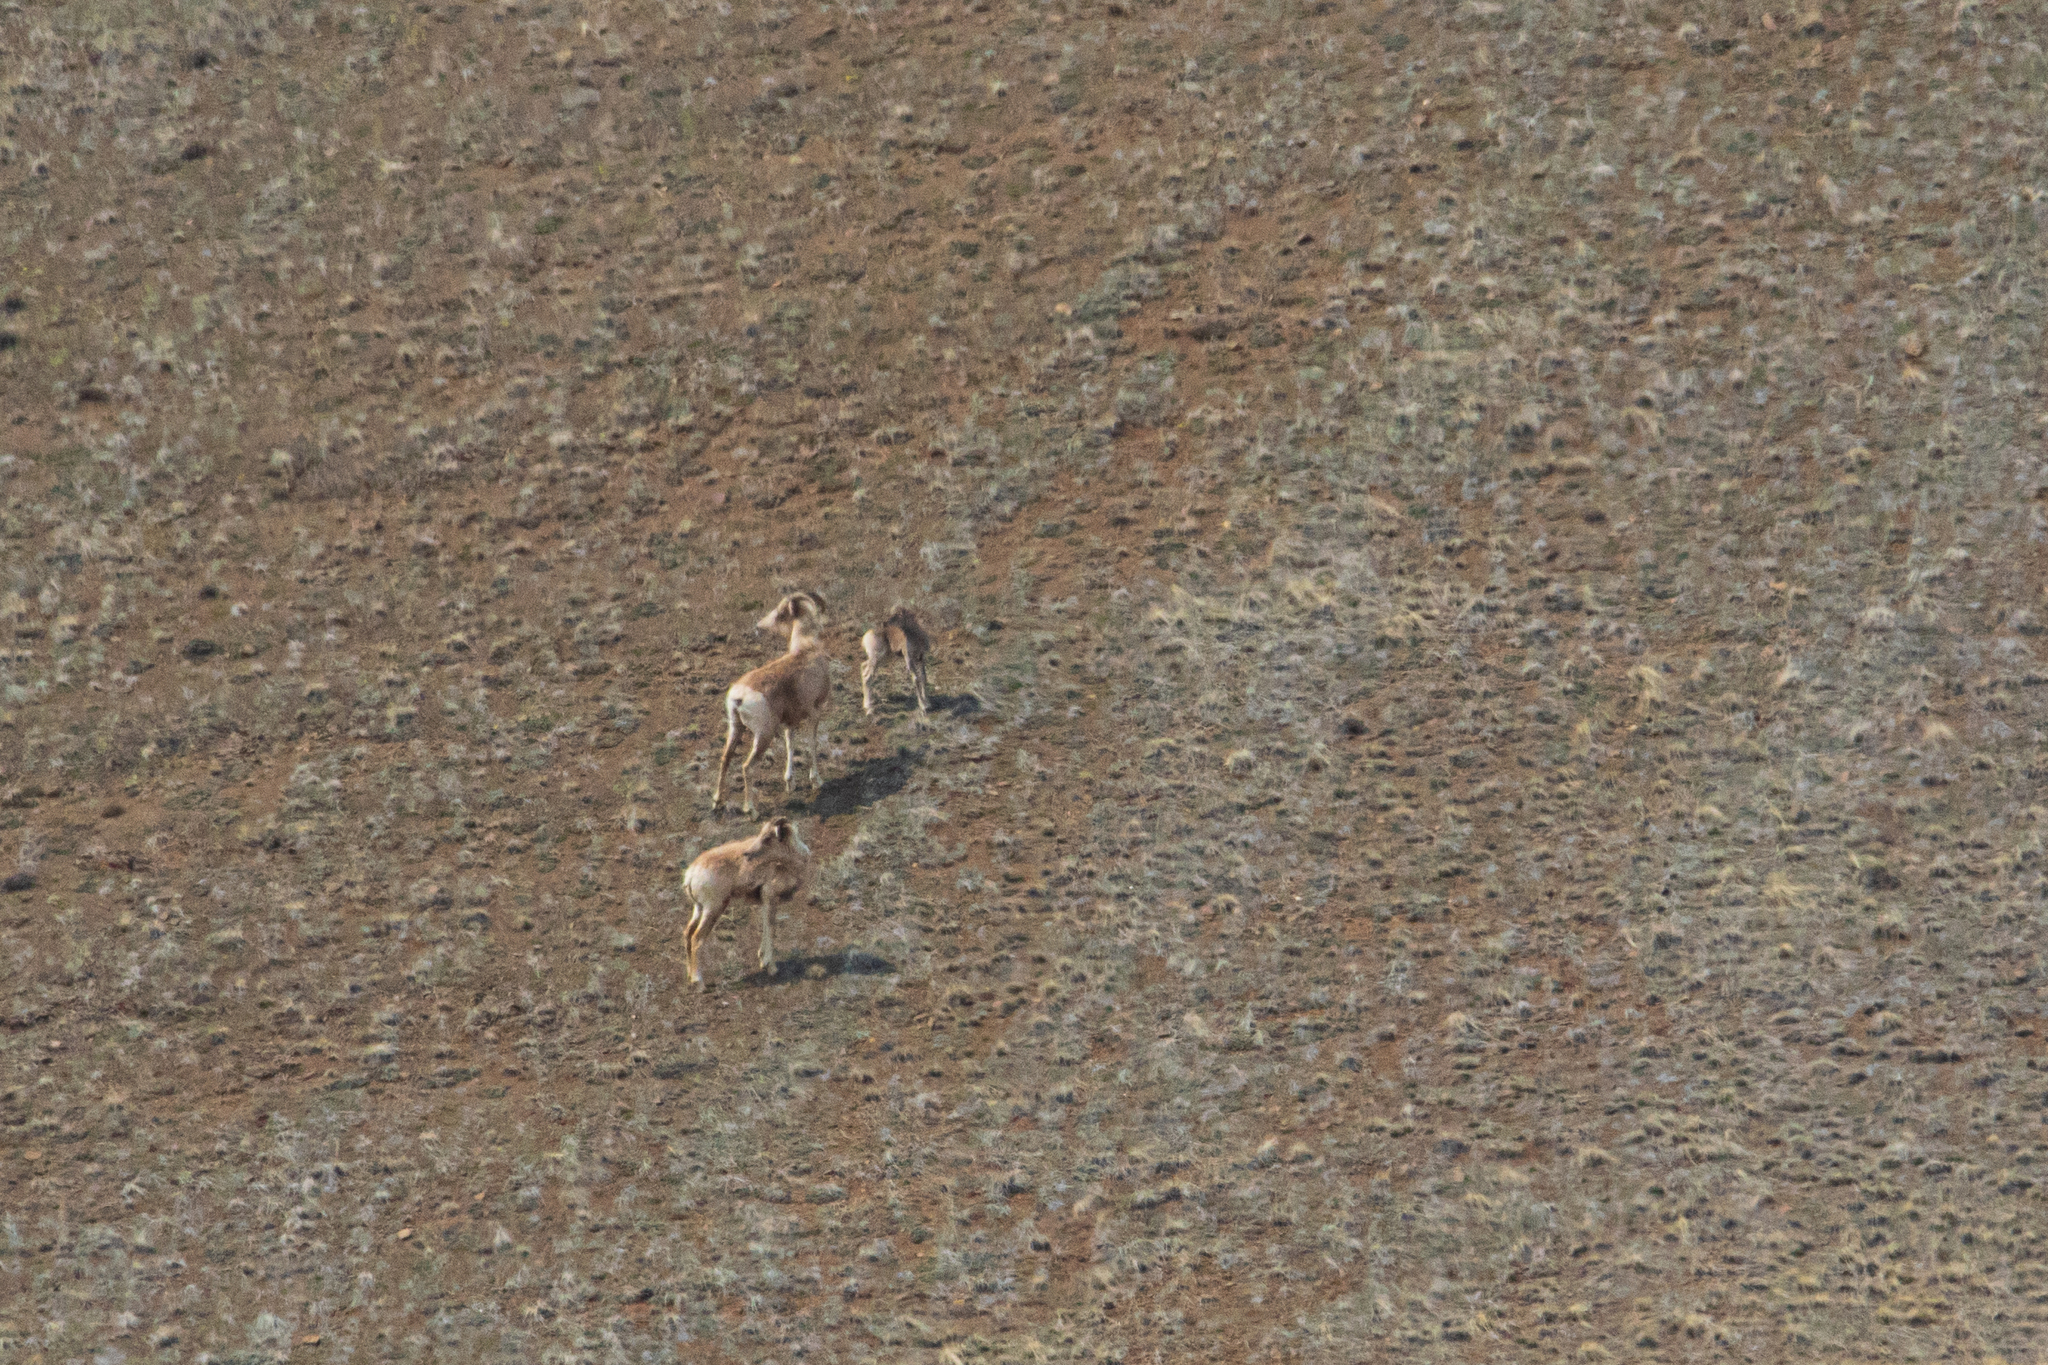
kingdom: Animalia
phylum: Chordata
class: Mammalia
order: Artiodactyla
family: Bovidae
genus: Ovis
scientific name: Ovis ammon
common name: Argali
